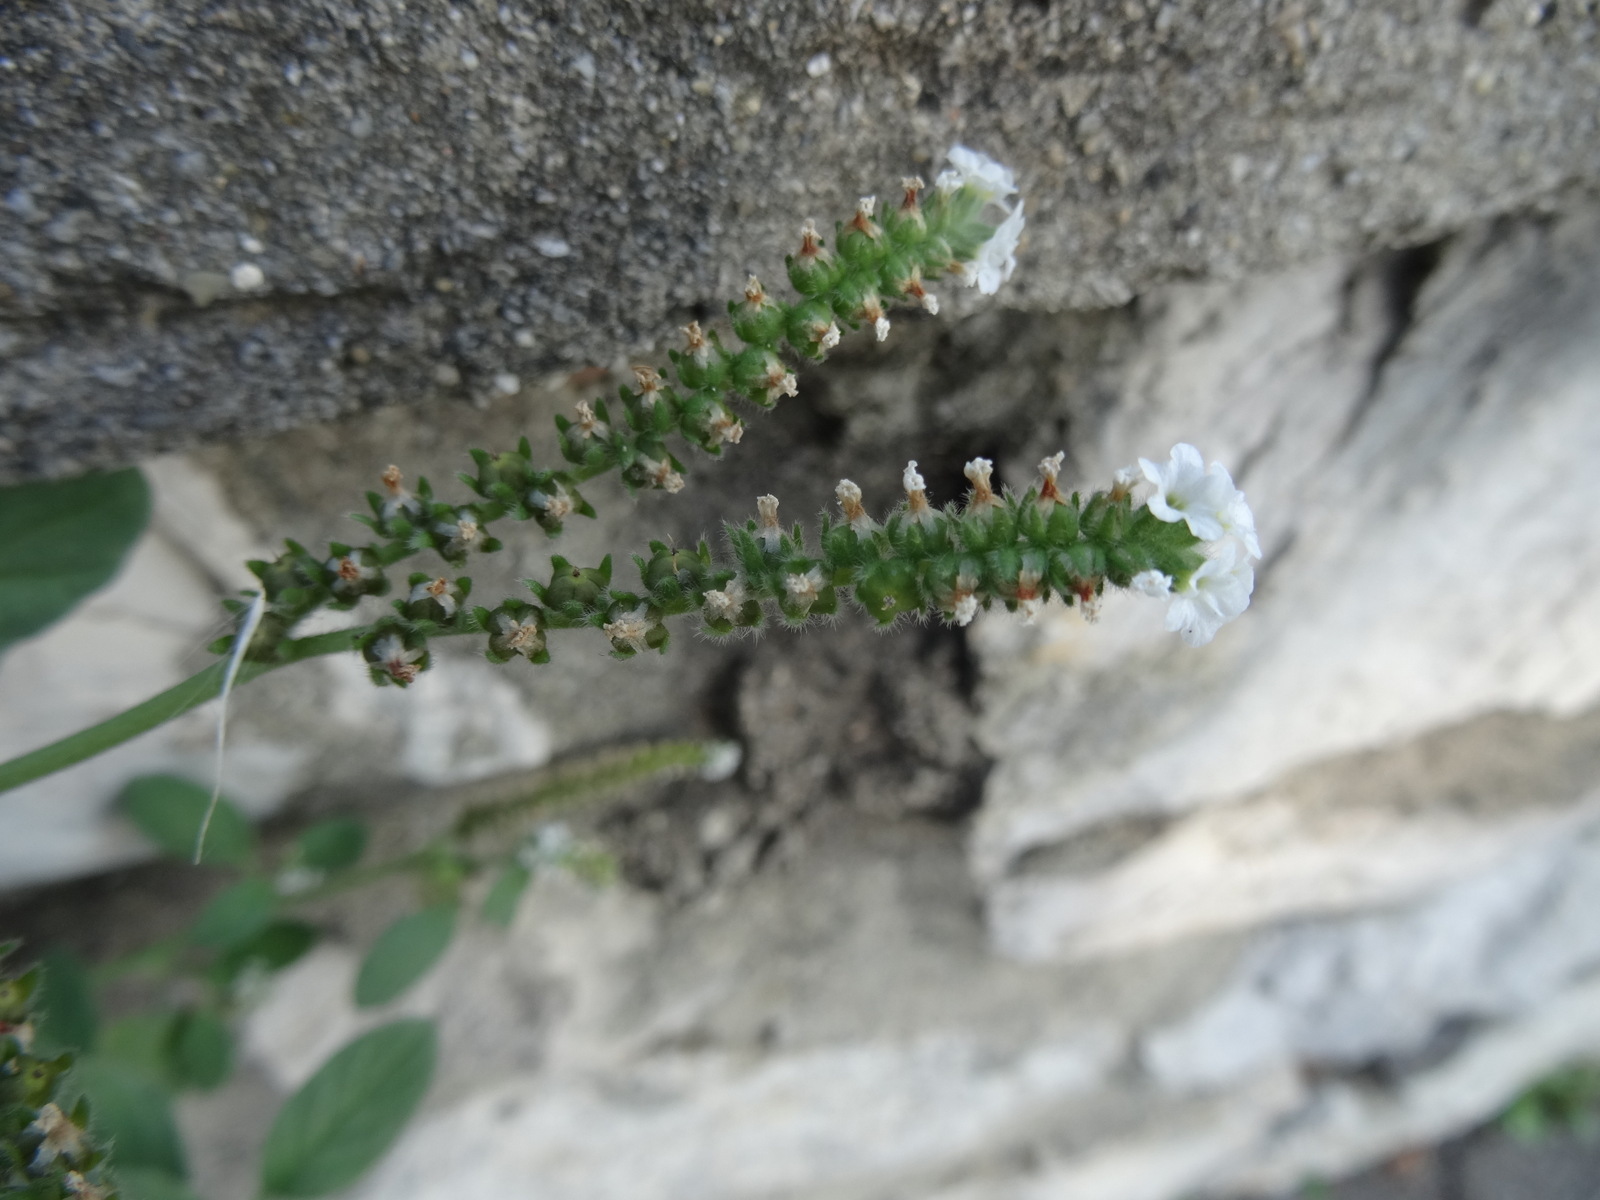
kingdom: Plantae
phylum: Tracheophyta
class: Magnoliopsida
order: Boraginales
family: Heliotropiaceae
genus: Heliotropium
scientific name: Heliotropium europaeum
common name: European heliotrope
